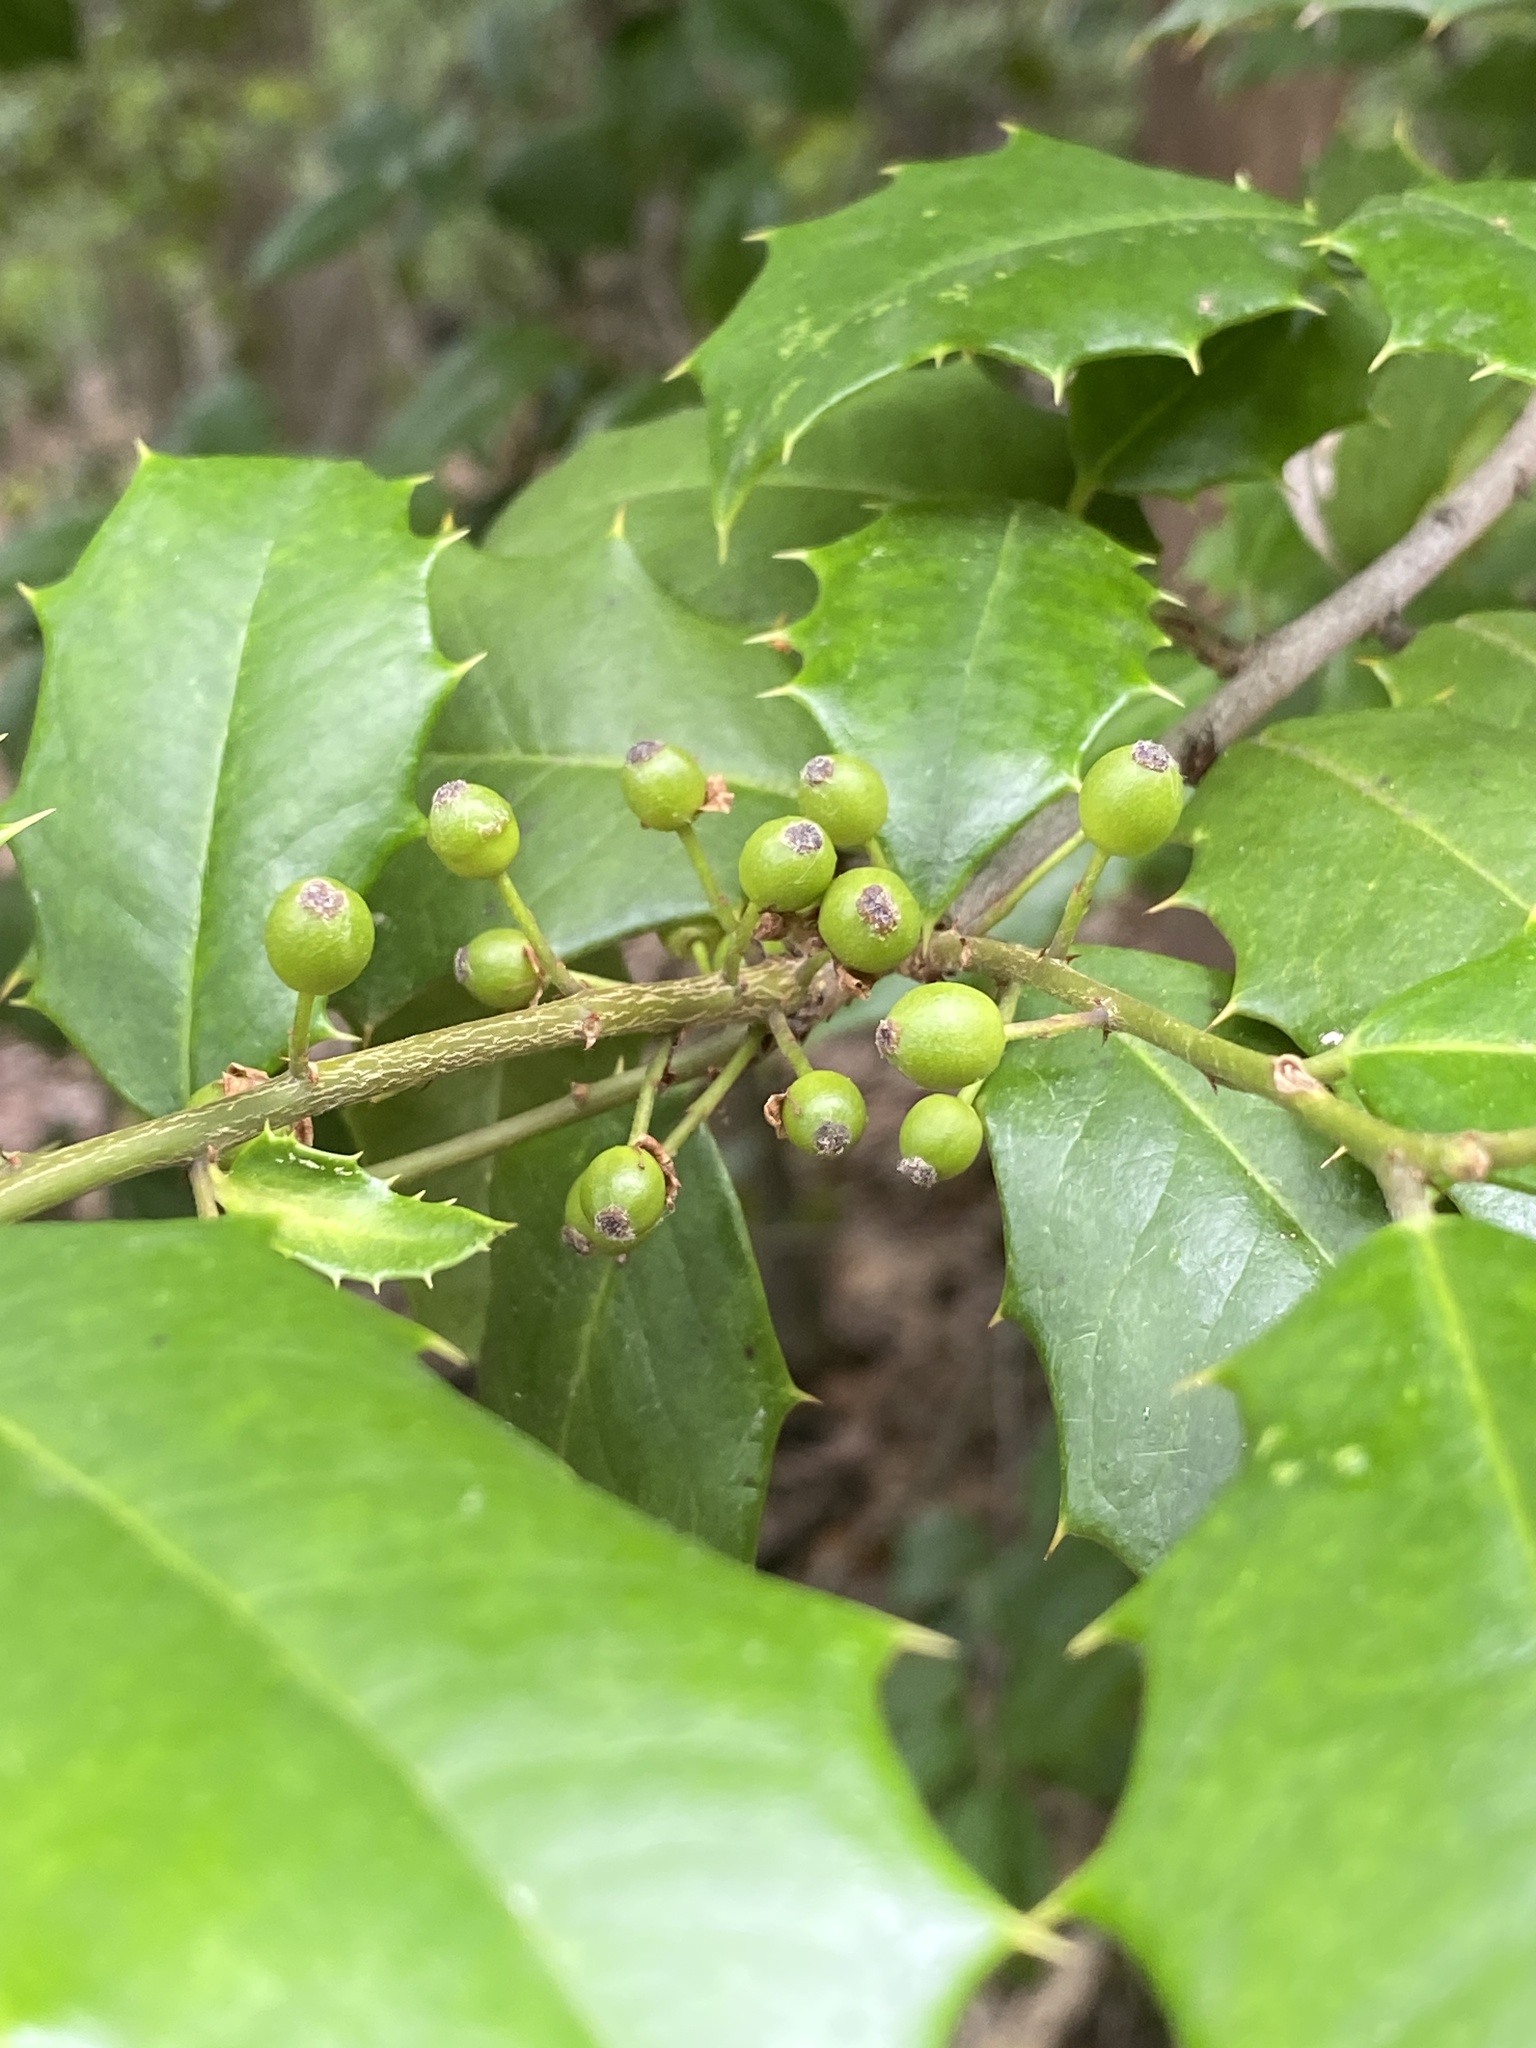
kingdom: Plantae
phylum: Tracheophyta
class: Magnoliopsida
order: Aquifoliales
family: Aquifoliaceae
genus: Ilex
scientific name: Ilex opaca
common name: American holly
